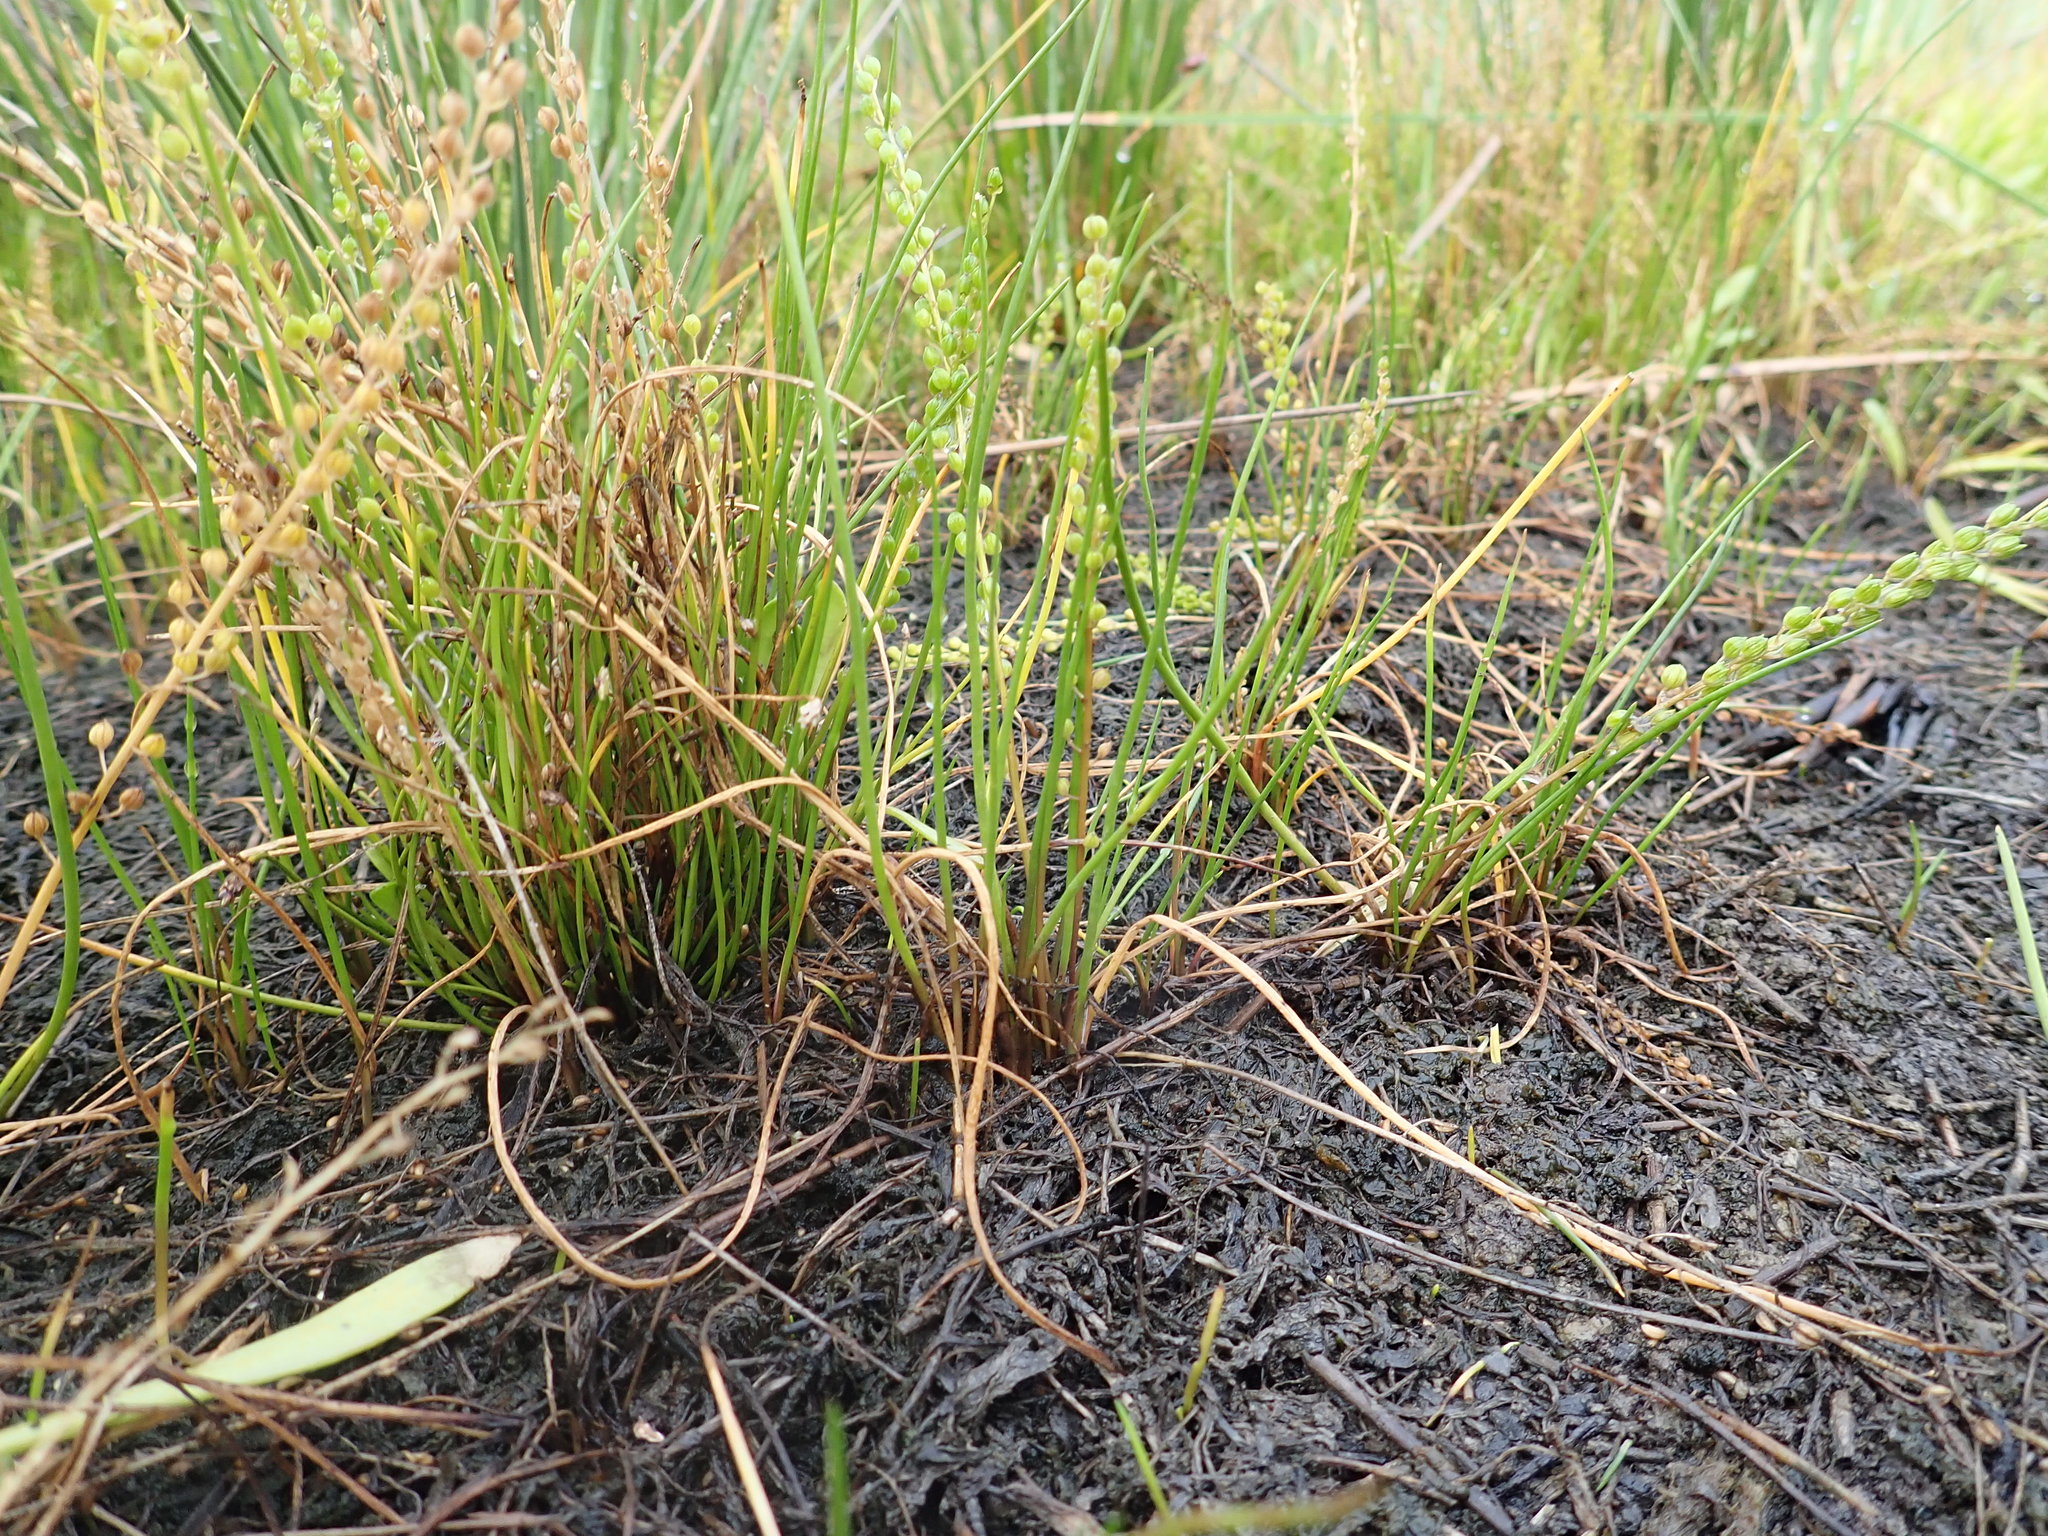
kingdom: Plantae
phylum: Tracheophyta
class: Liliopsida
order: Alismatales
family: Juncaginaceae
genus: Triglochin
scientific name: Triglochin striata
